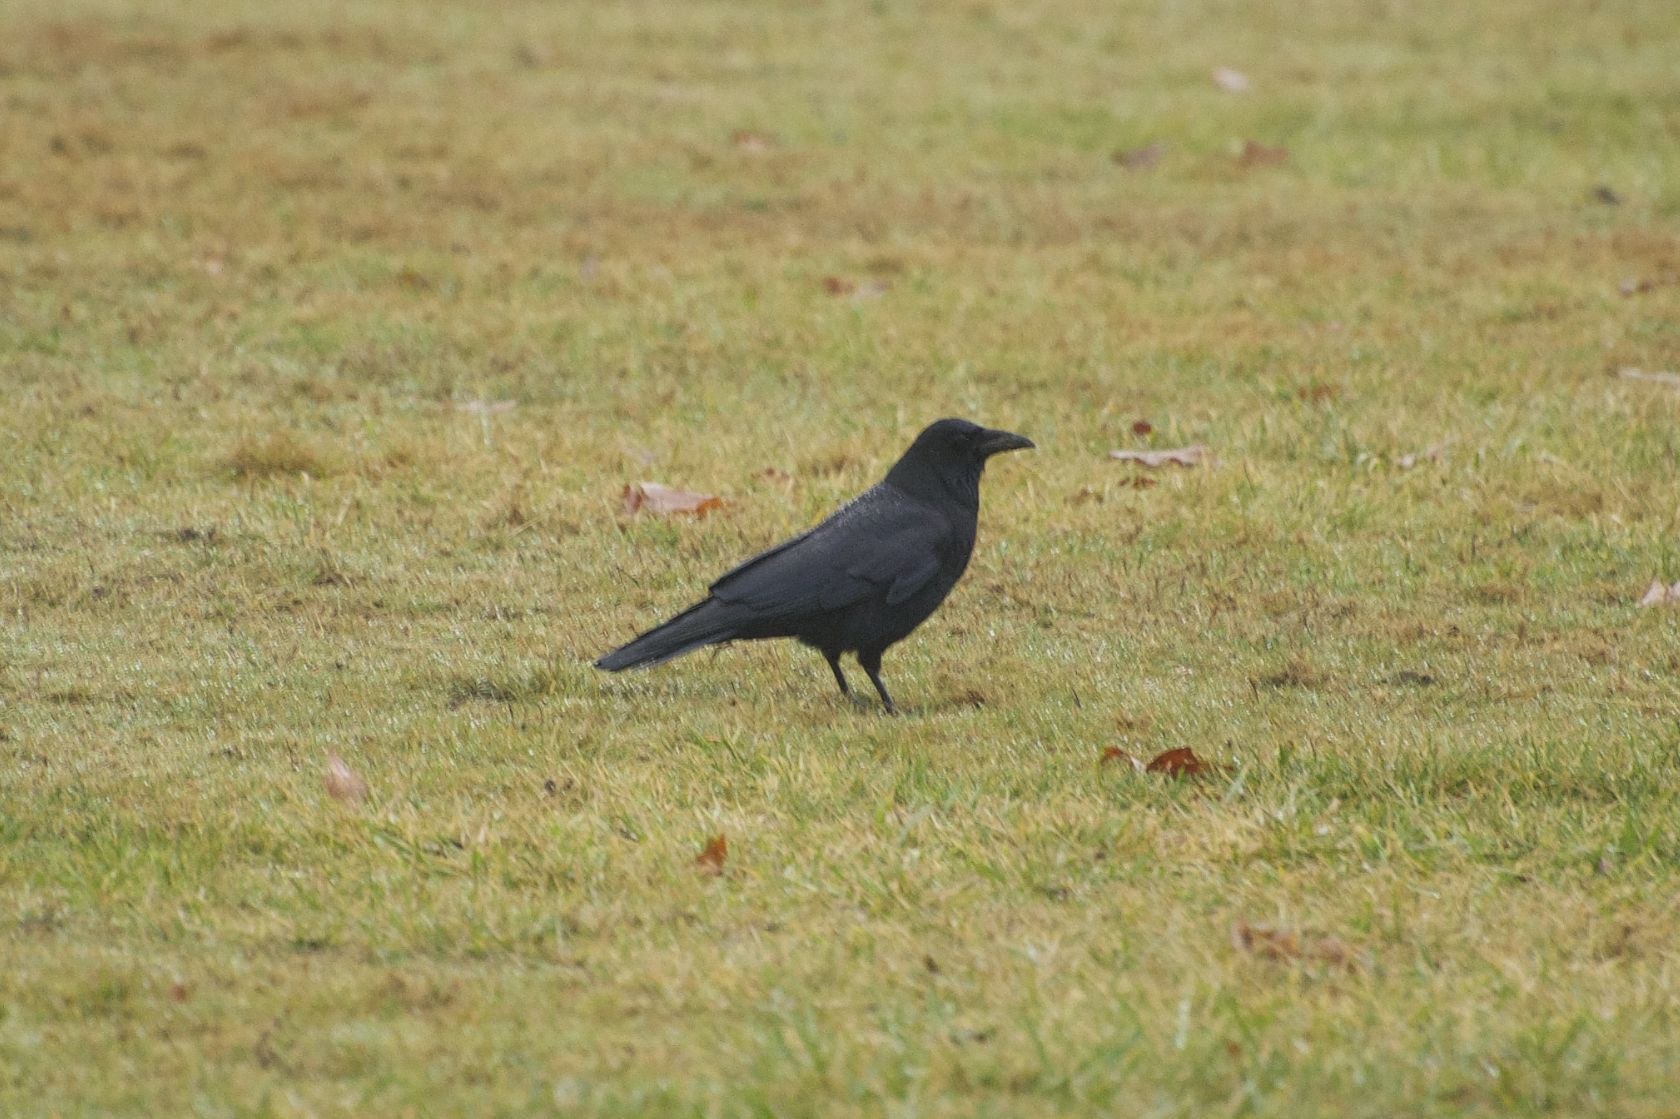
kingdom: Animalia
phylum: Chordata
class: Aves
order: Passeriformes
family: Corvidae
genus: Corvus
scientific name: Corvus brachyrhynchos
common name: American crow
